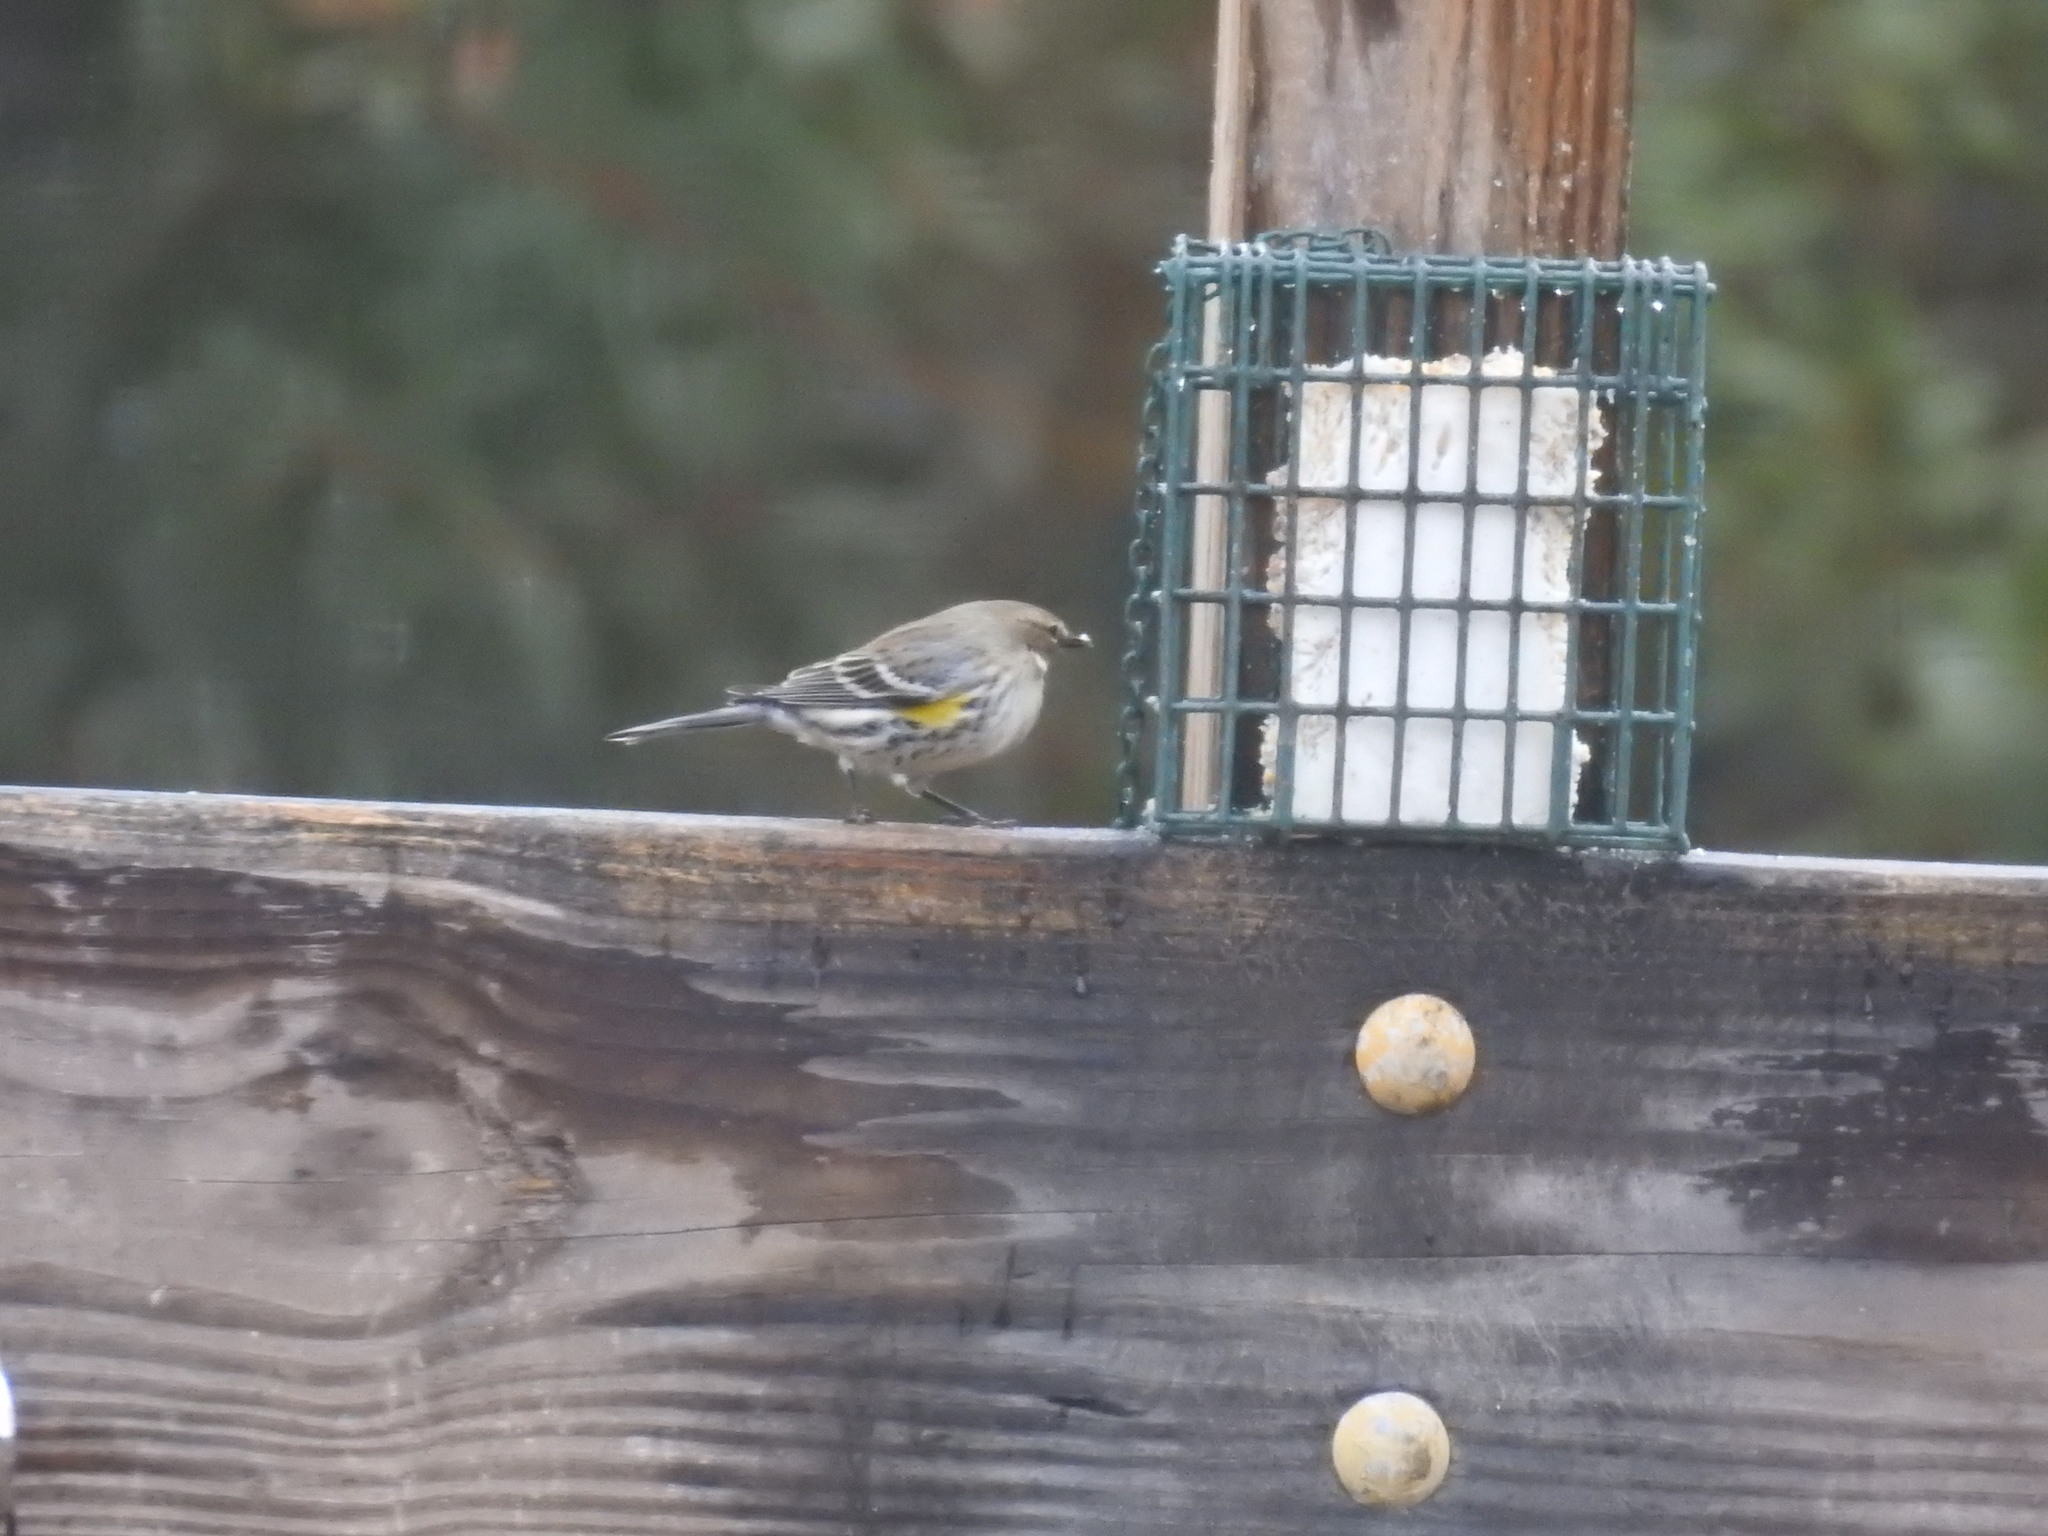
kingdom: Animalia
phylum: Chordata
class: Aves
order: Passeriformes
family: Parulidae
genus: Setophaga
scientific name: Setophaga coronata
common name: Myrtle warbler
